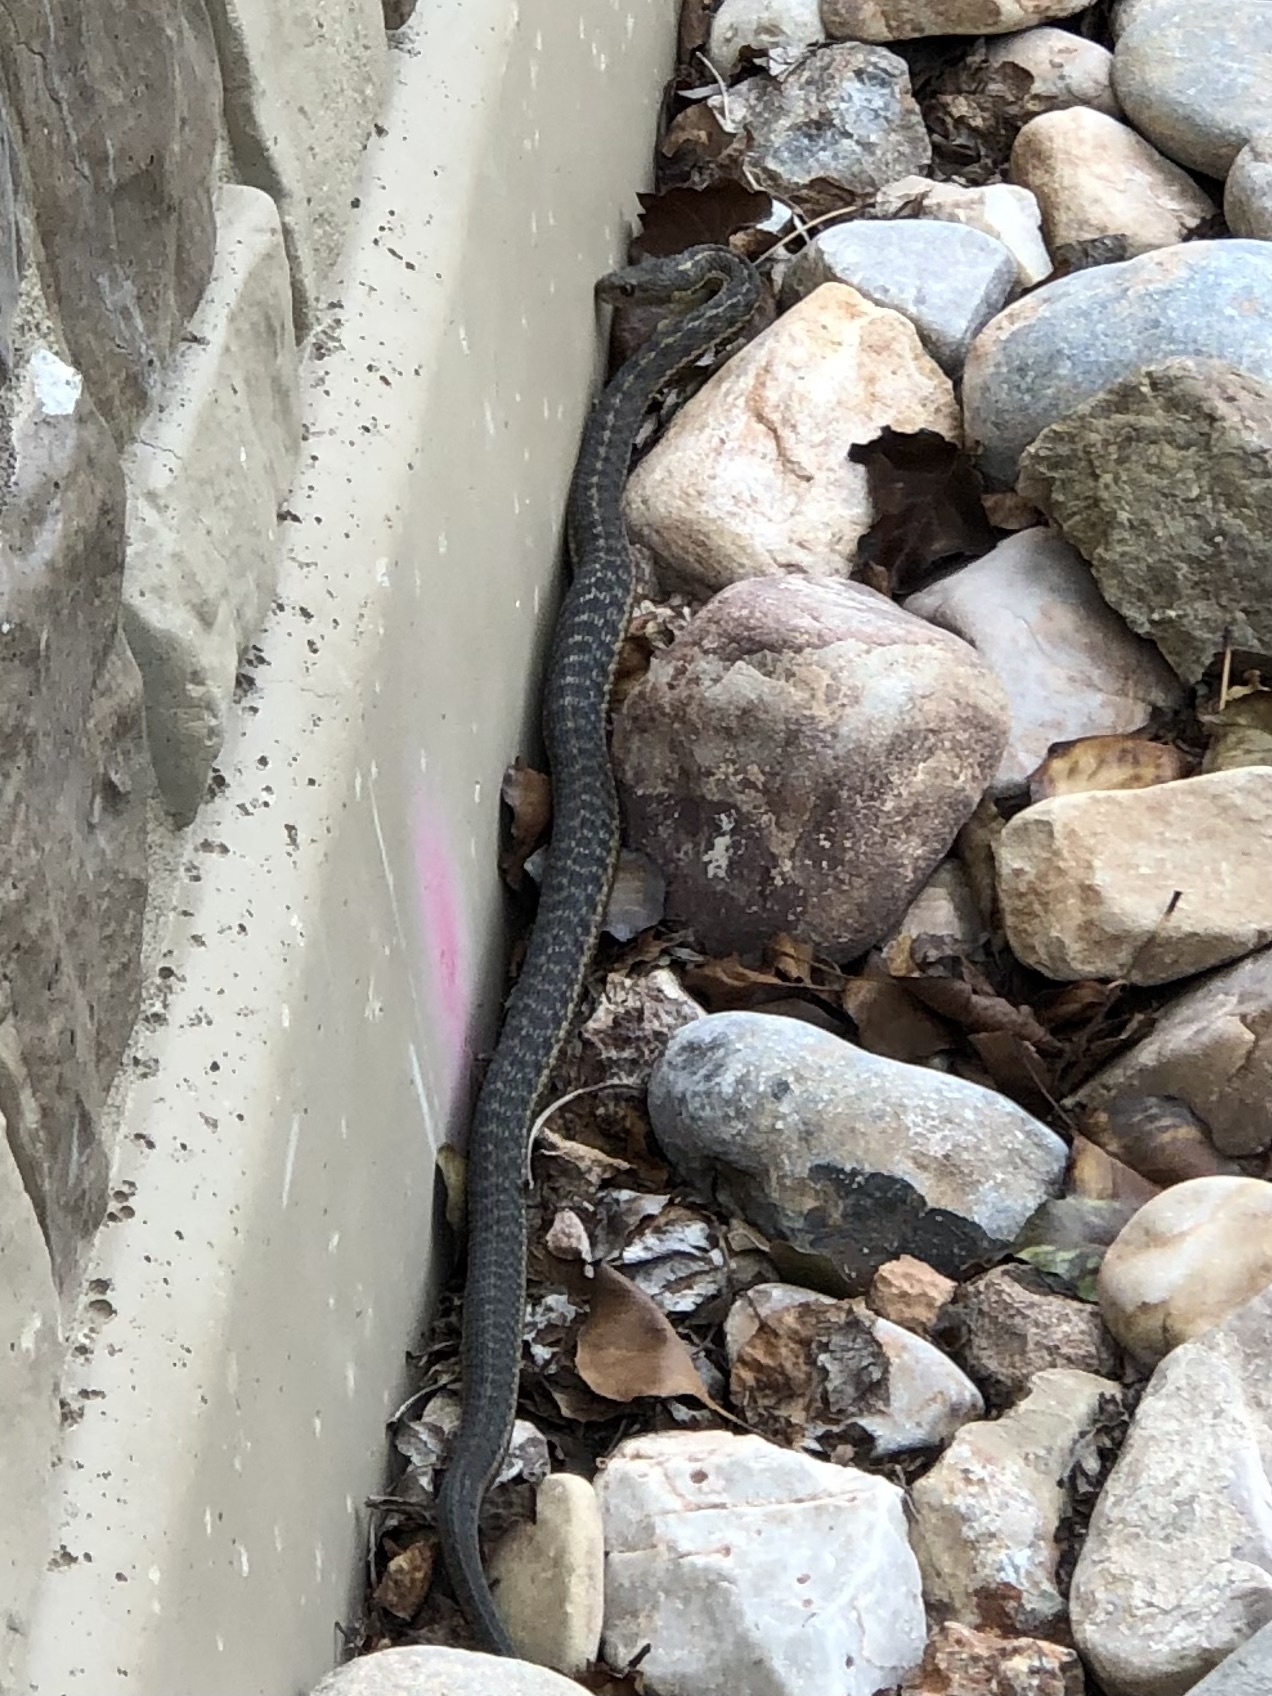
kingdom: Animalia
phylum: Chordata
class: Squamata
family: Colubridae
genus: Thamnophis
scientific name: Thamnophis elegans
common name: Western terrestrial garter snake
